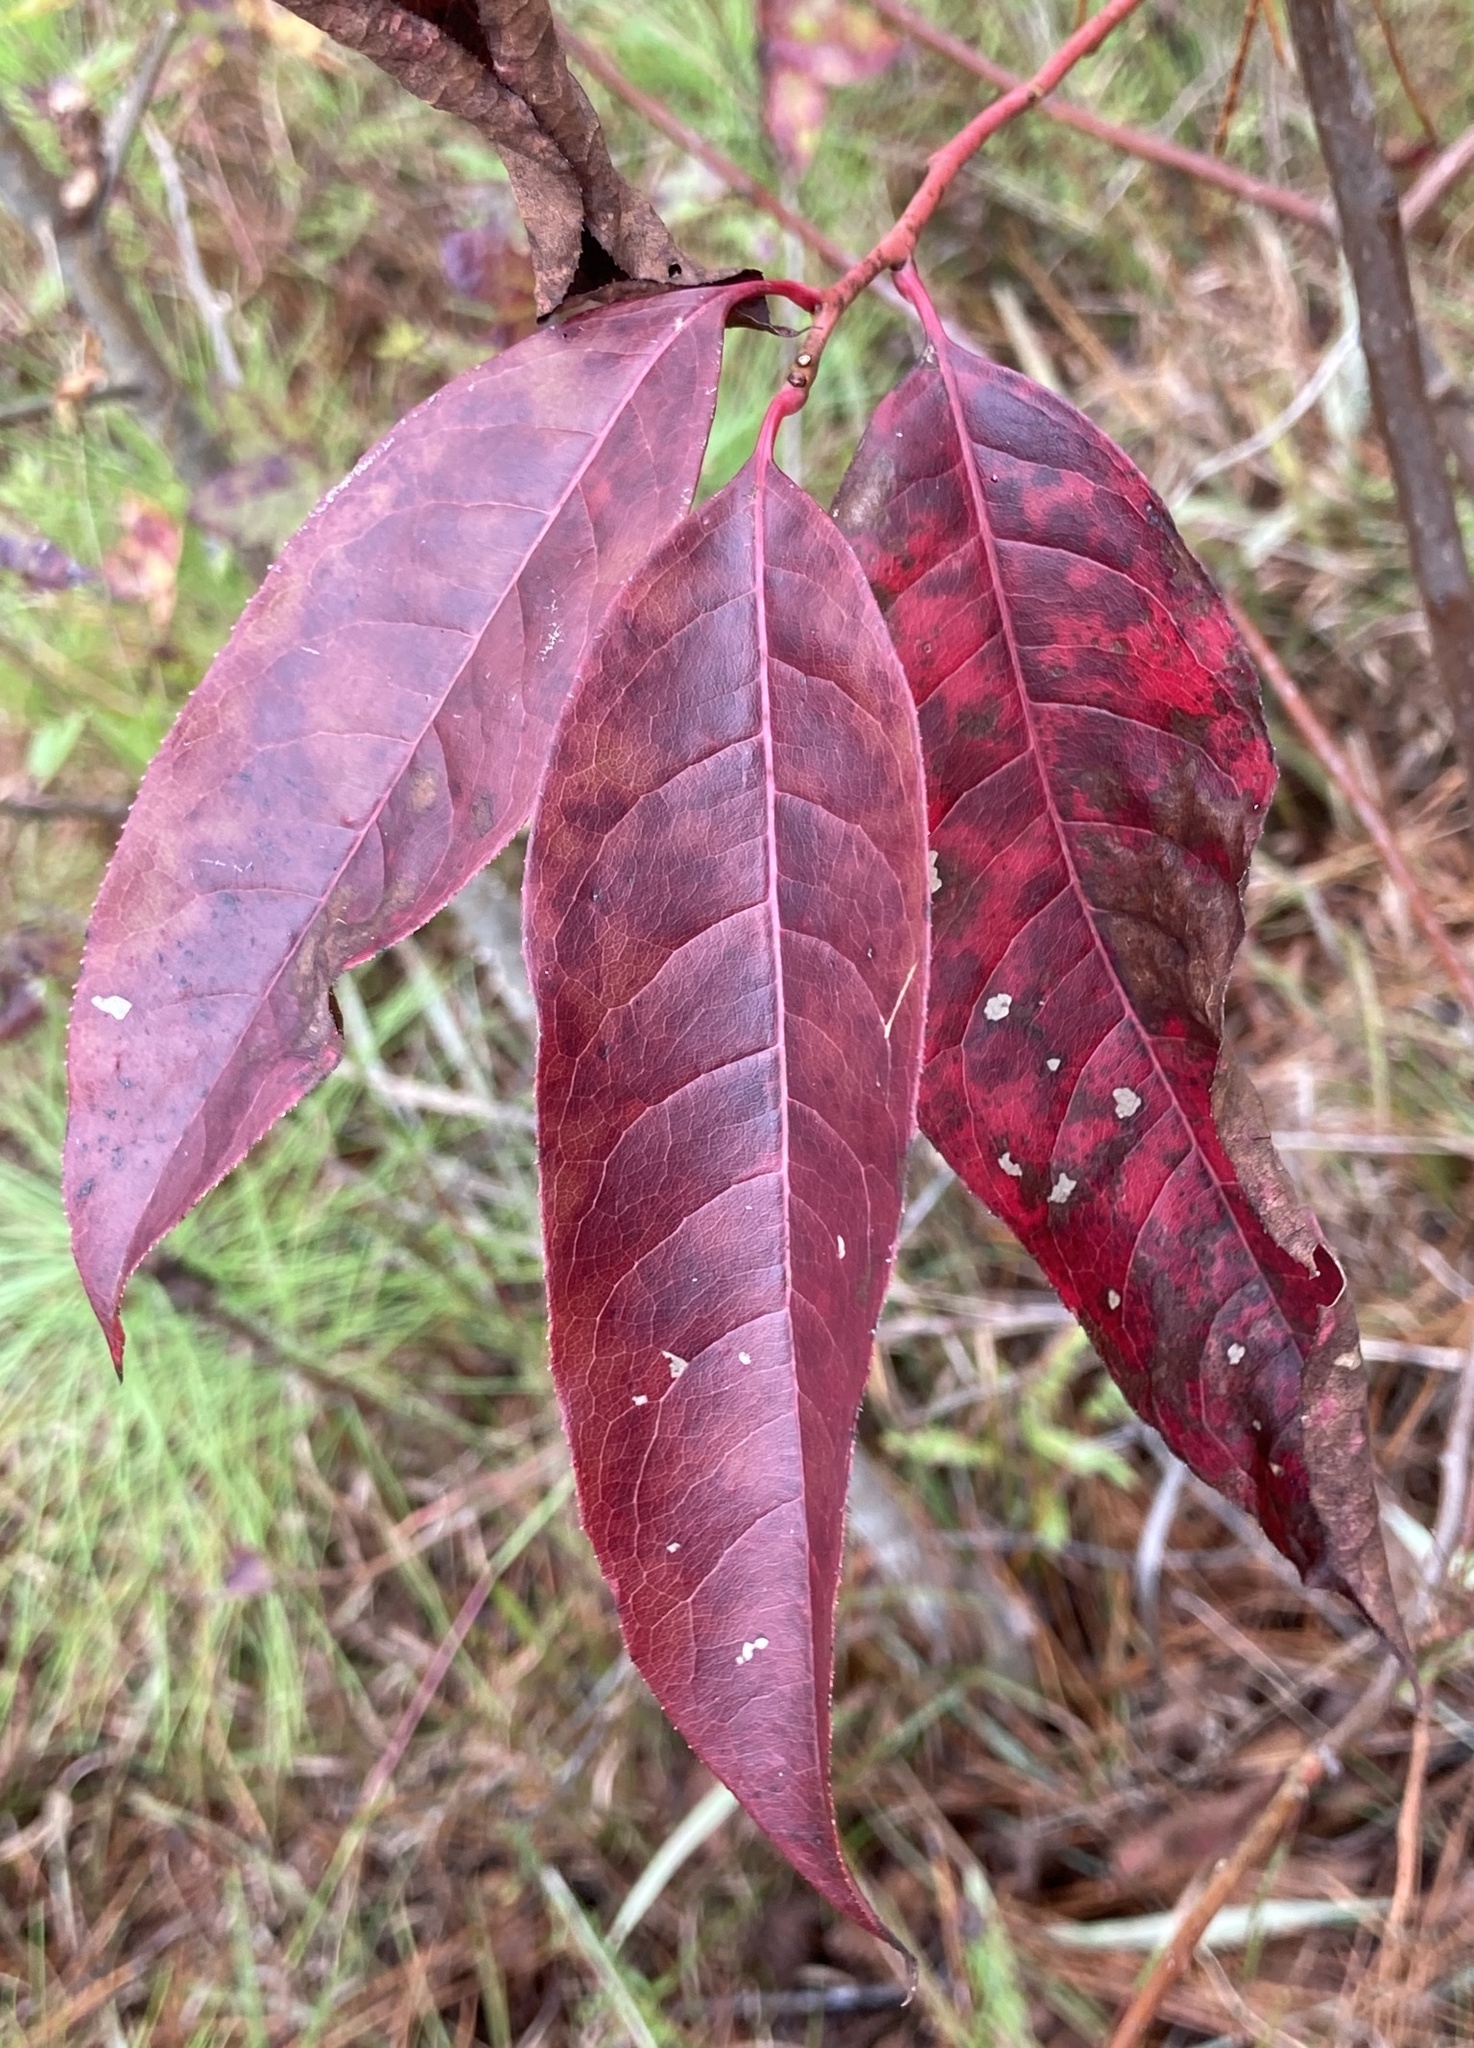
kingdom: Plantae
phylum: Tracheophyta
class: Magnoliopsida
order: Ericales
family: Ericaceae
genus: Oxydendrum
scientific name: Oxydendrum arboreum
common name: Sourwood
